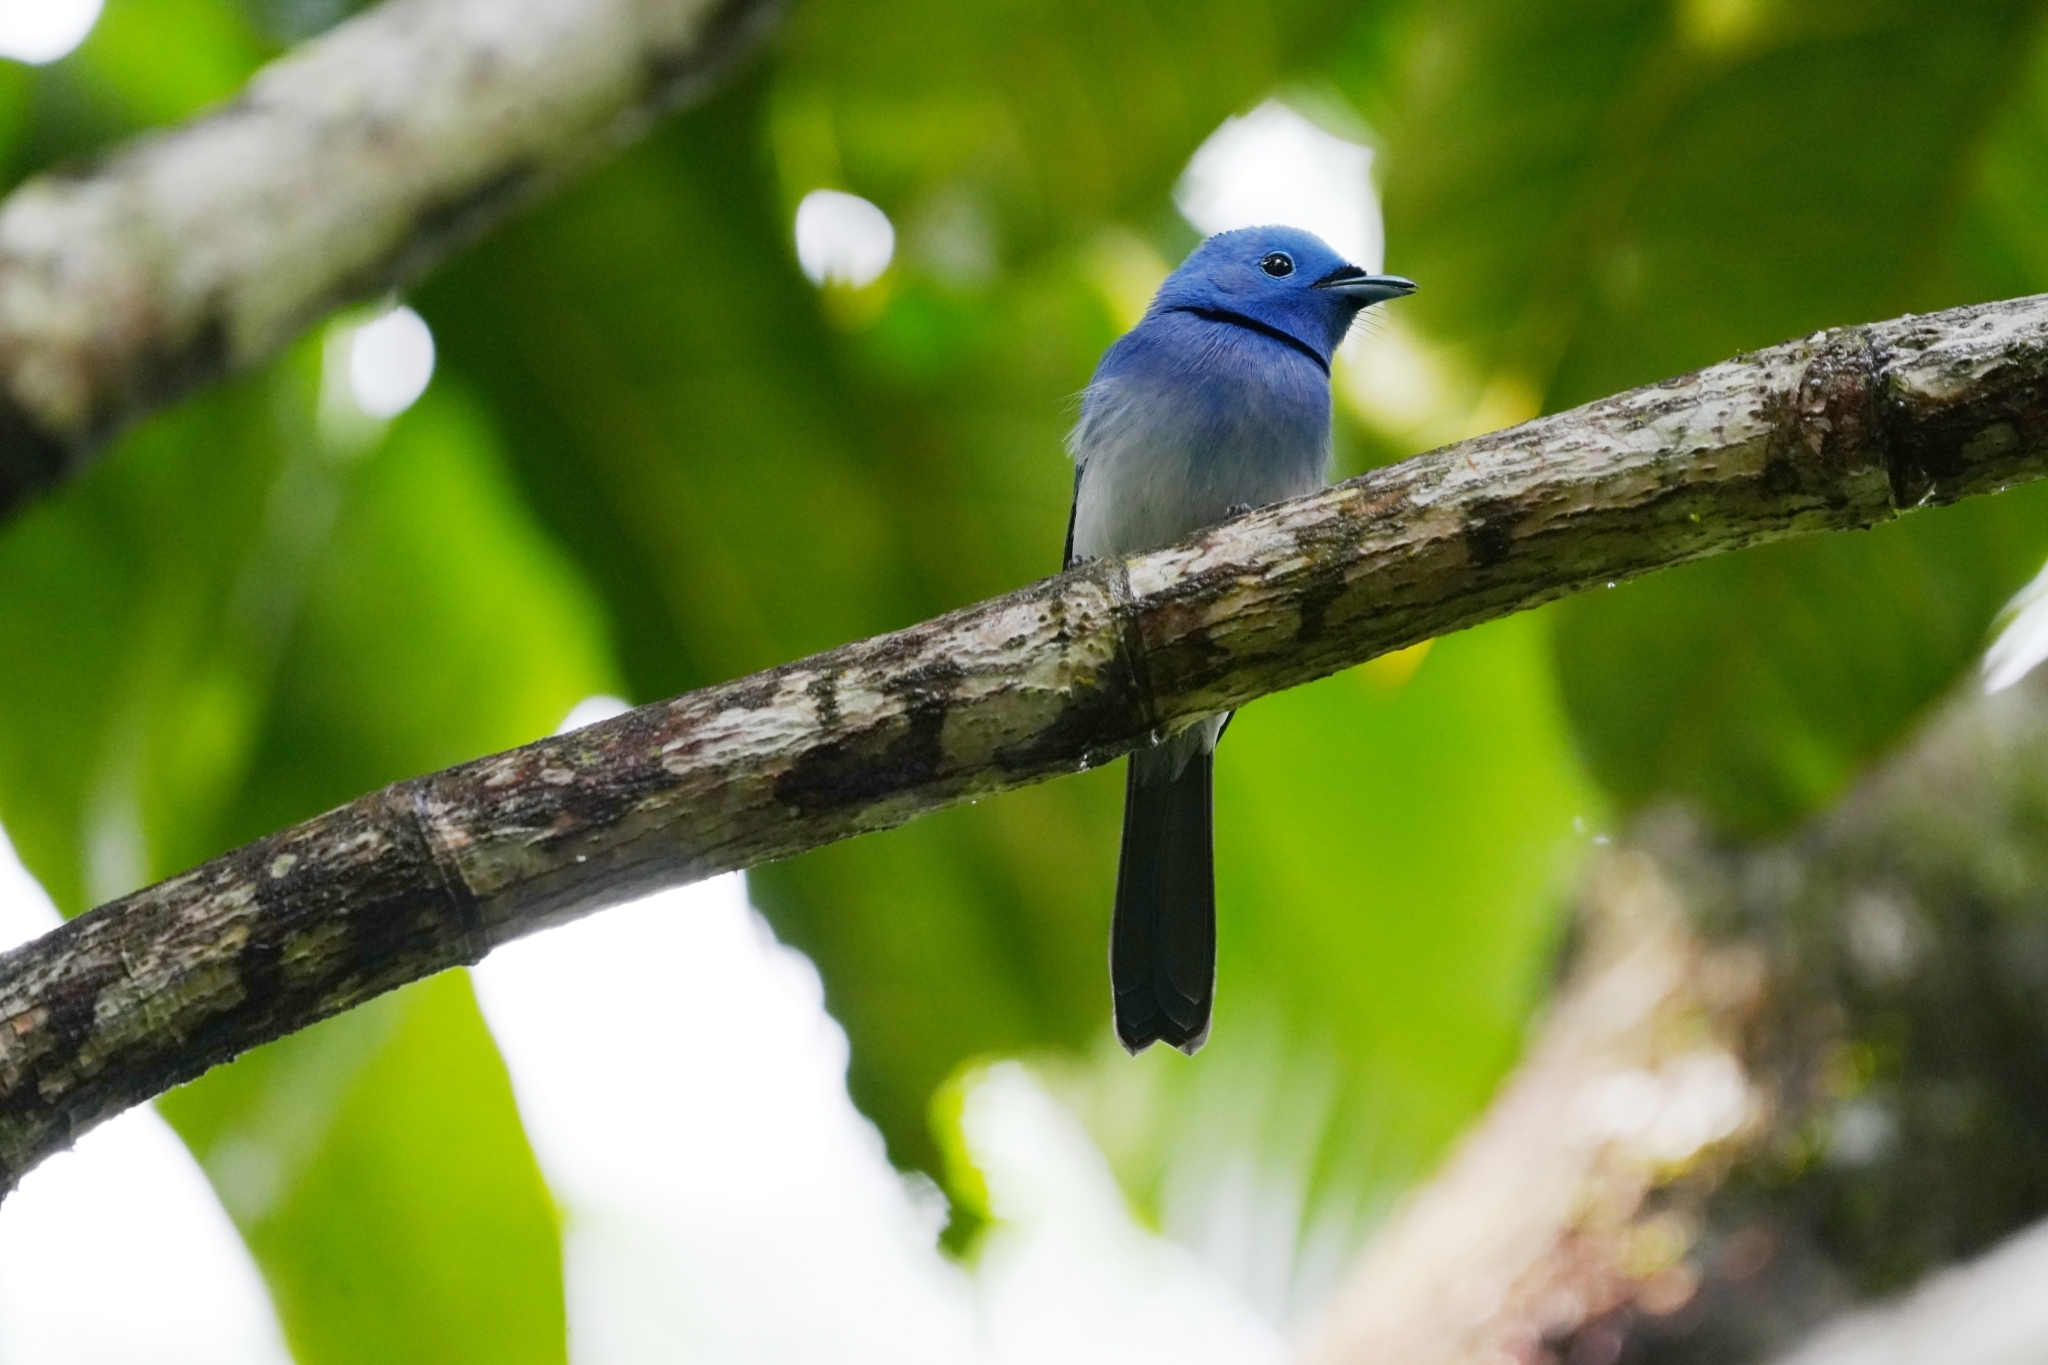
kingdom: Animalia
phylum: Chordata
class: Aves
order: Passeriformes
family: Monarchidae
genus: Hypothymis
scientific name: Hypothymis azurea
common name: Black-naped monarch
